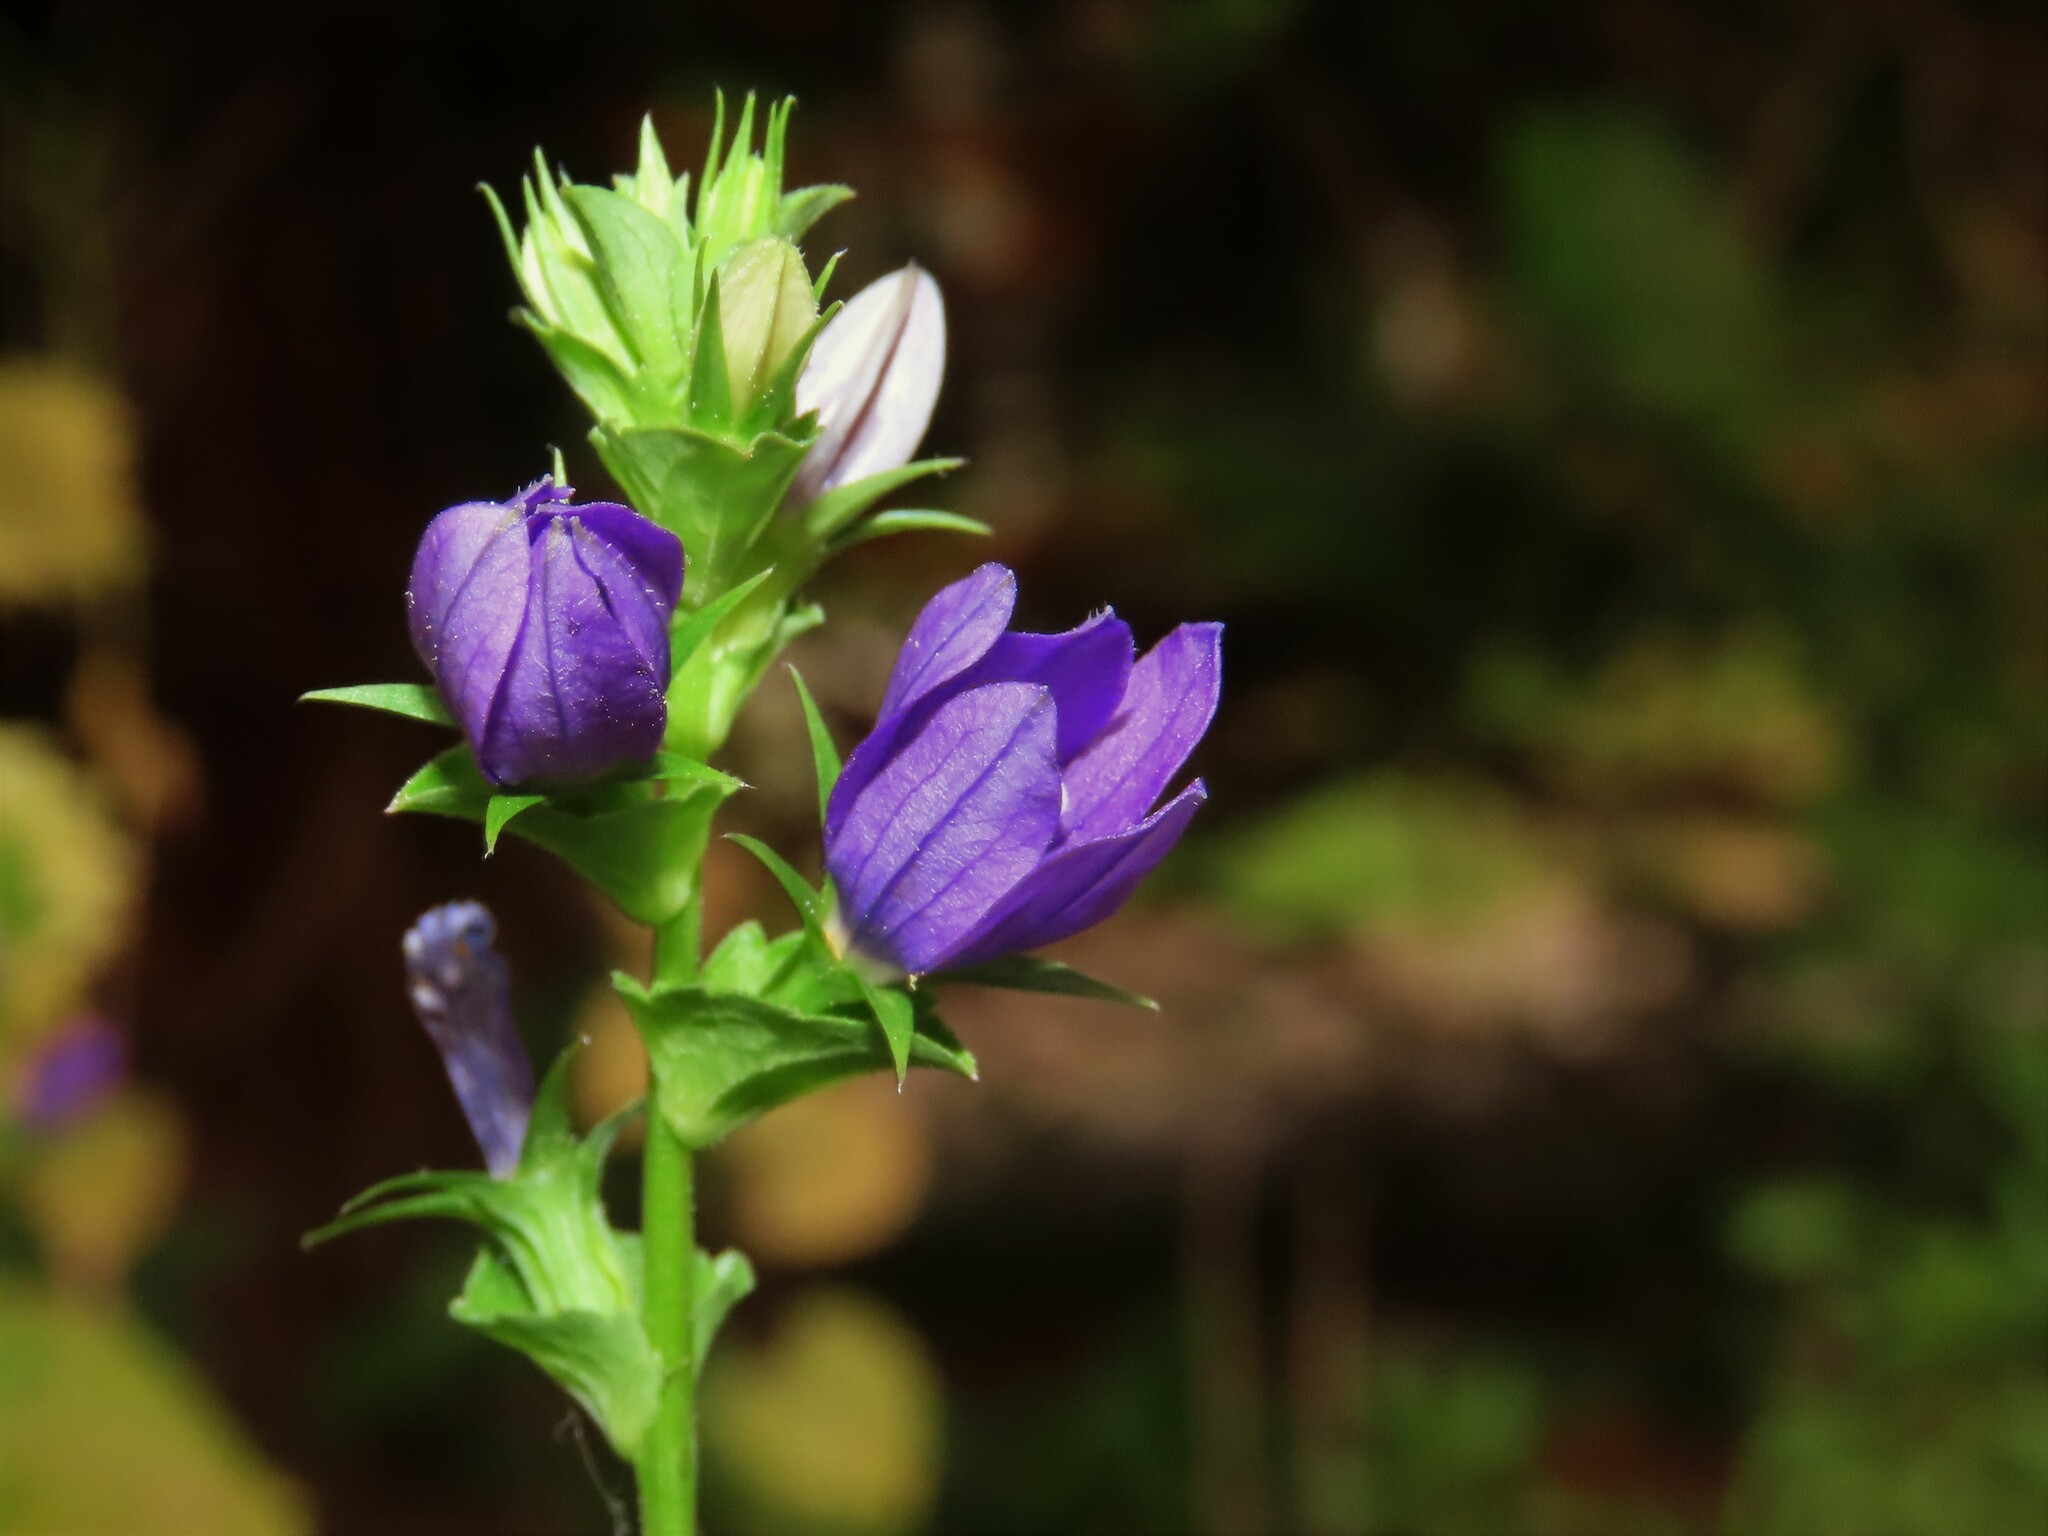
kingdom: Plantae
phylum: Tracheophyta
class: Magnoliopsida
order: Asterales
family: Campanulaceae
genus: Triodanis
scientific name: Triodanis perfoliata
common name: Clasping venus' looking-glass
